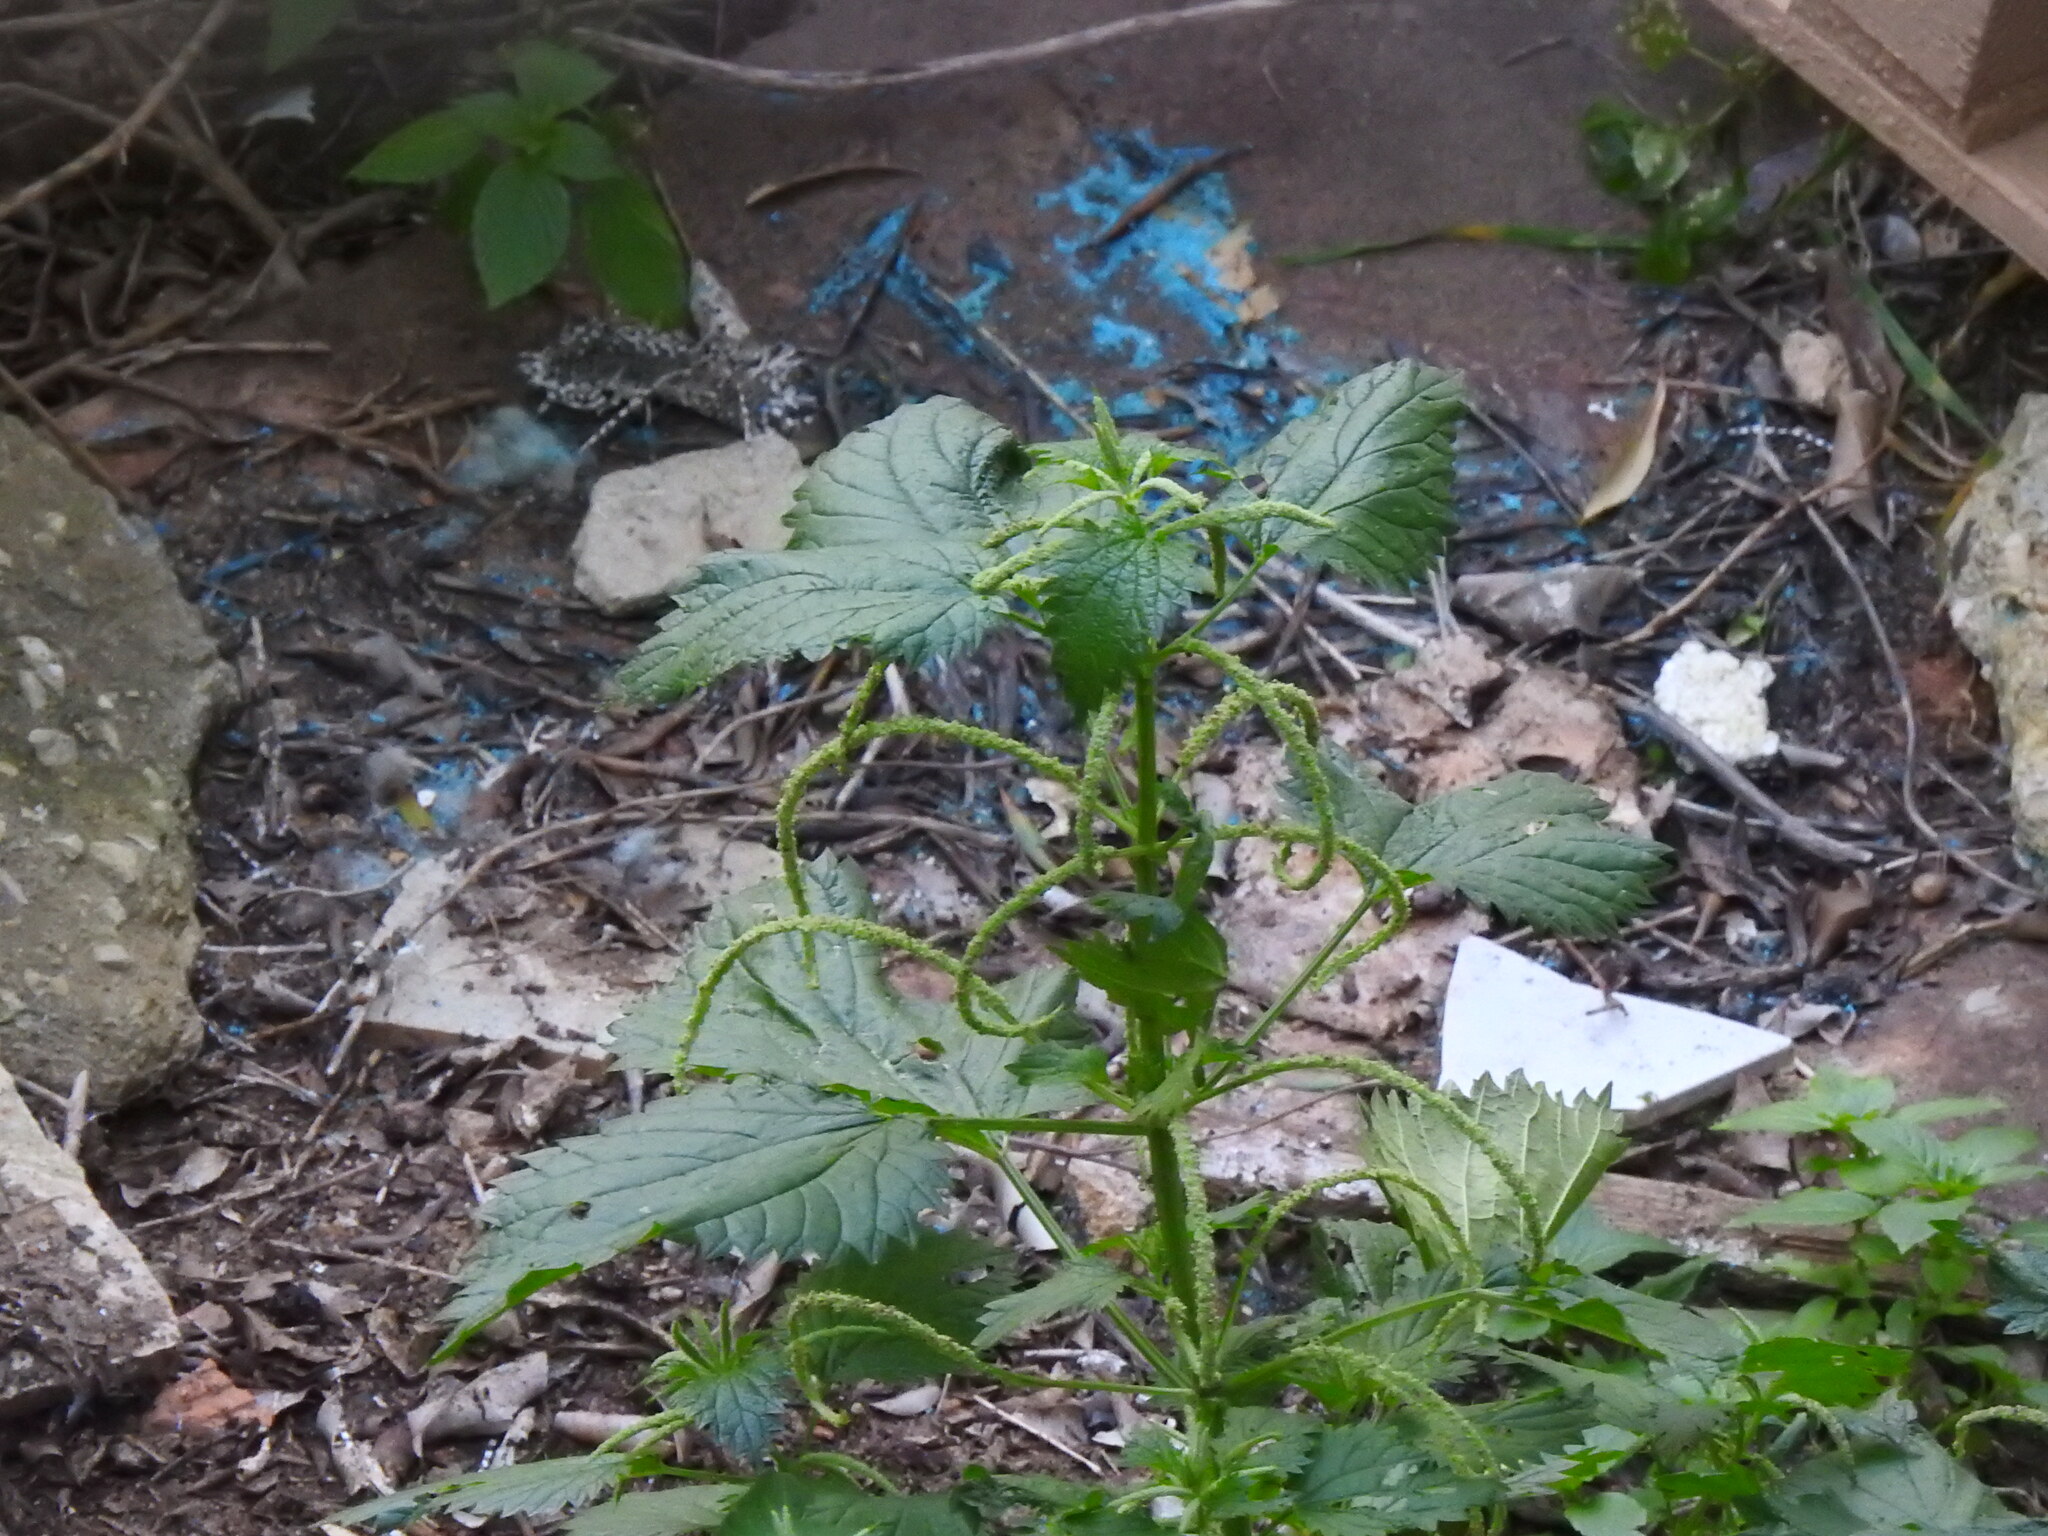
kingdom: Plantae
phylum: Tracheophyta
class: Magnoliopsida
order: Rosales
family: Urticaceae
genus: Urtica
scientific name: Urtica membranacea
